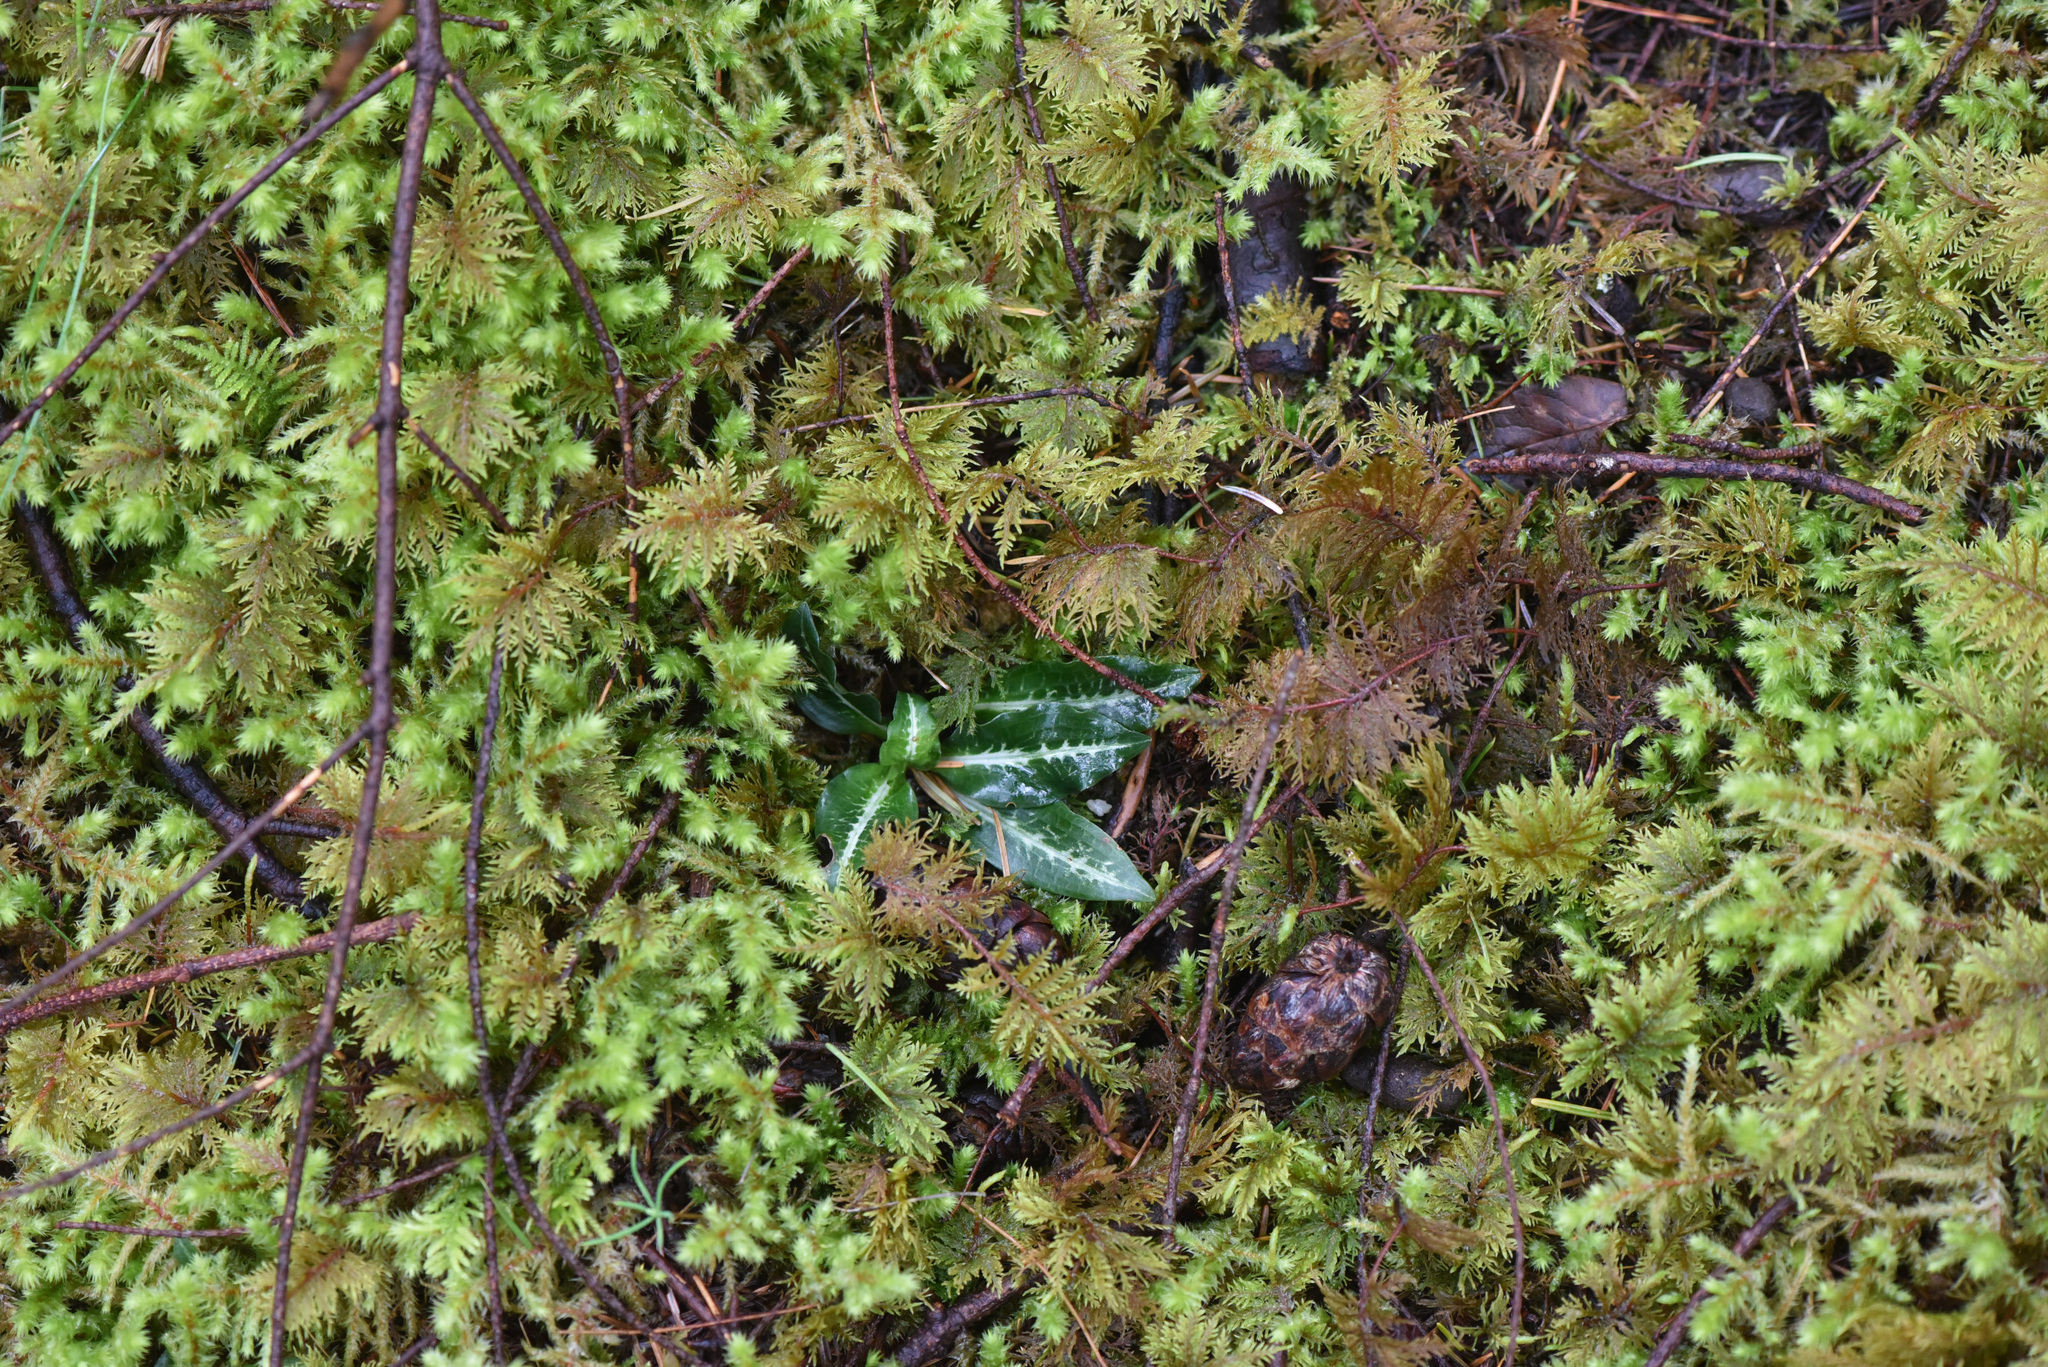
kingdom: Plantae
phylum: Tracheophyta
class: Liliopsida
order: Asparagales
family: Orchidaceae
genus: Goodyera
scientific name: Goodyera oblongifolia
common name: Giant rattlesnake-plantain
